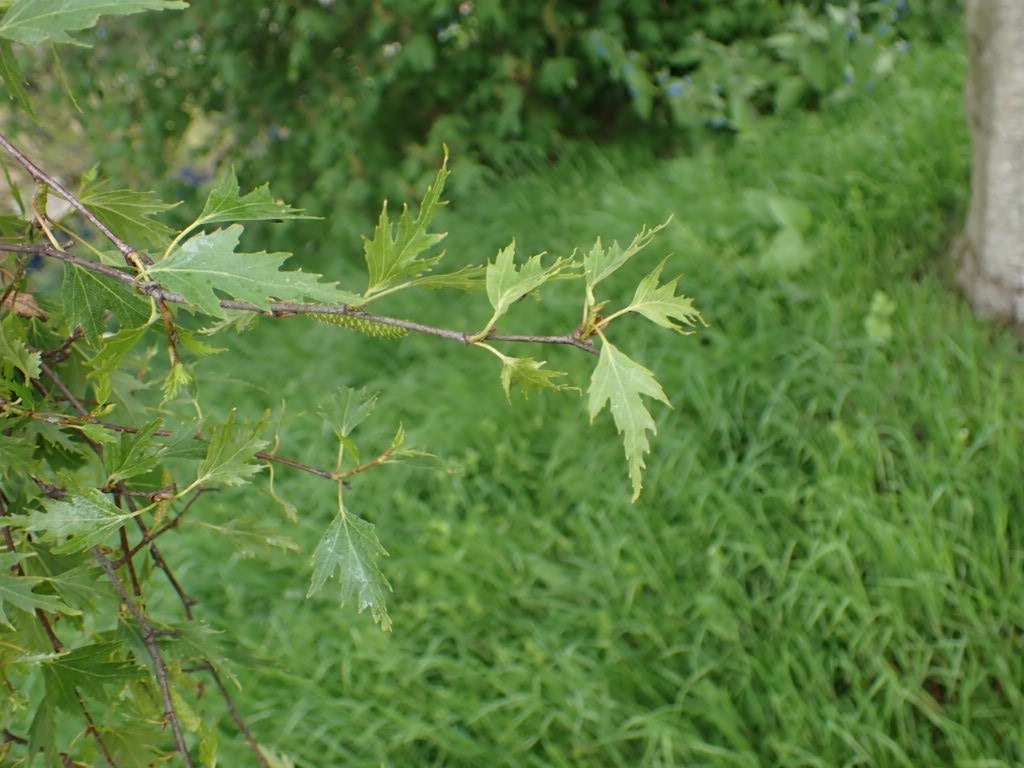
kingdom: Plantae
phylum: Tracheophyta
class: Magnoliopsida
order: Fagales
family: Betulaceae
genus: Betula
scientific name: Betula pendula
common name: Silver birch
